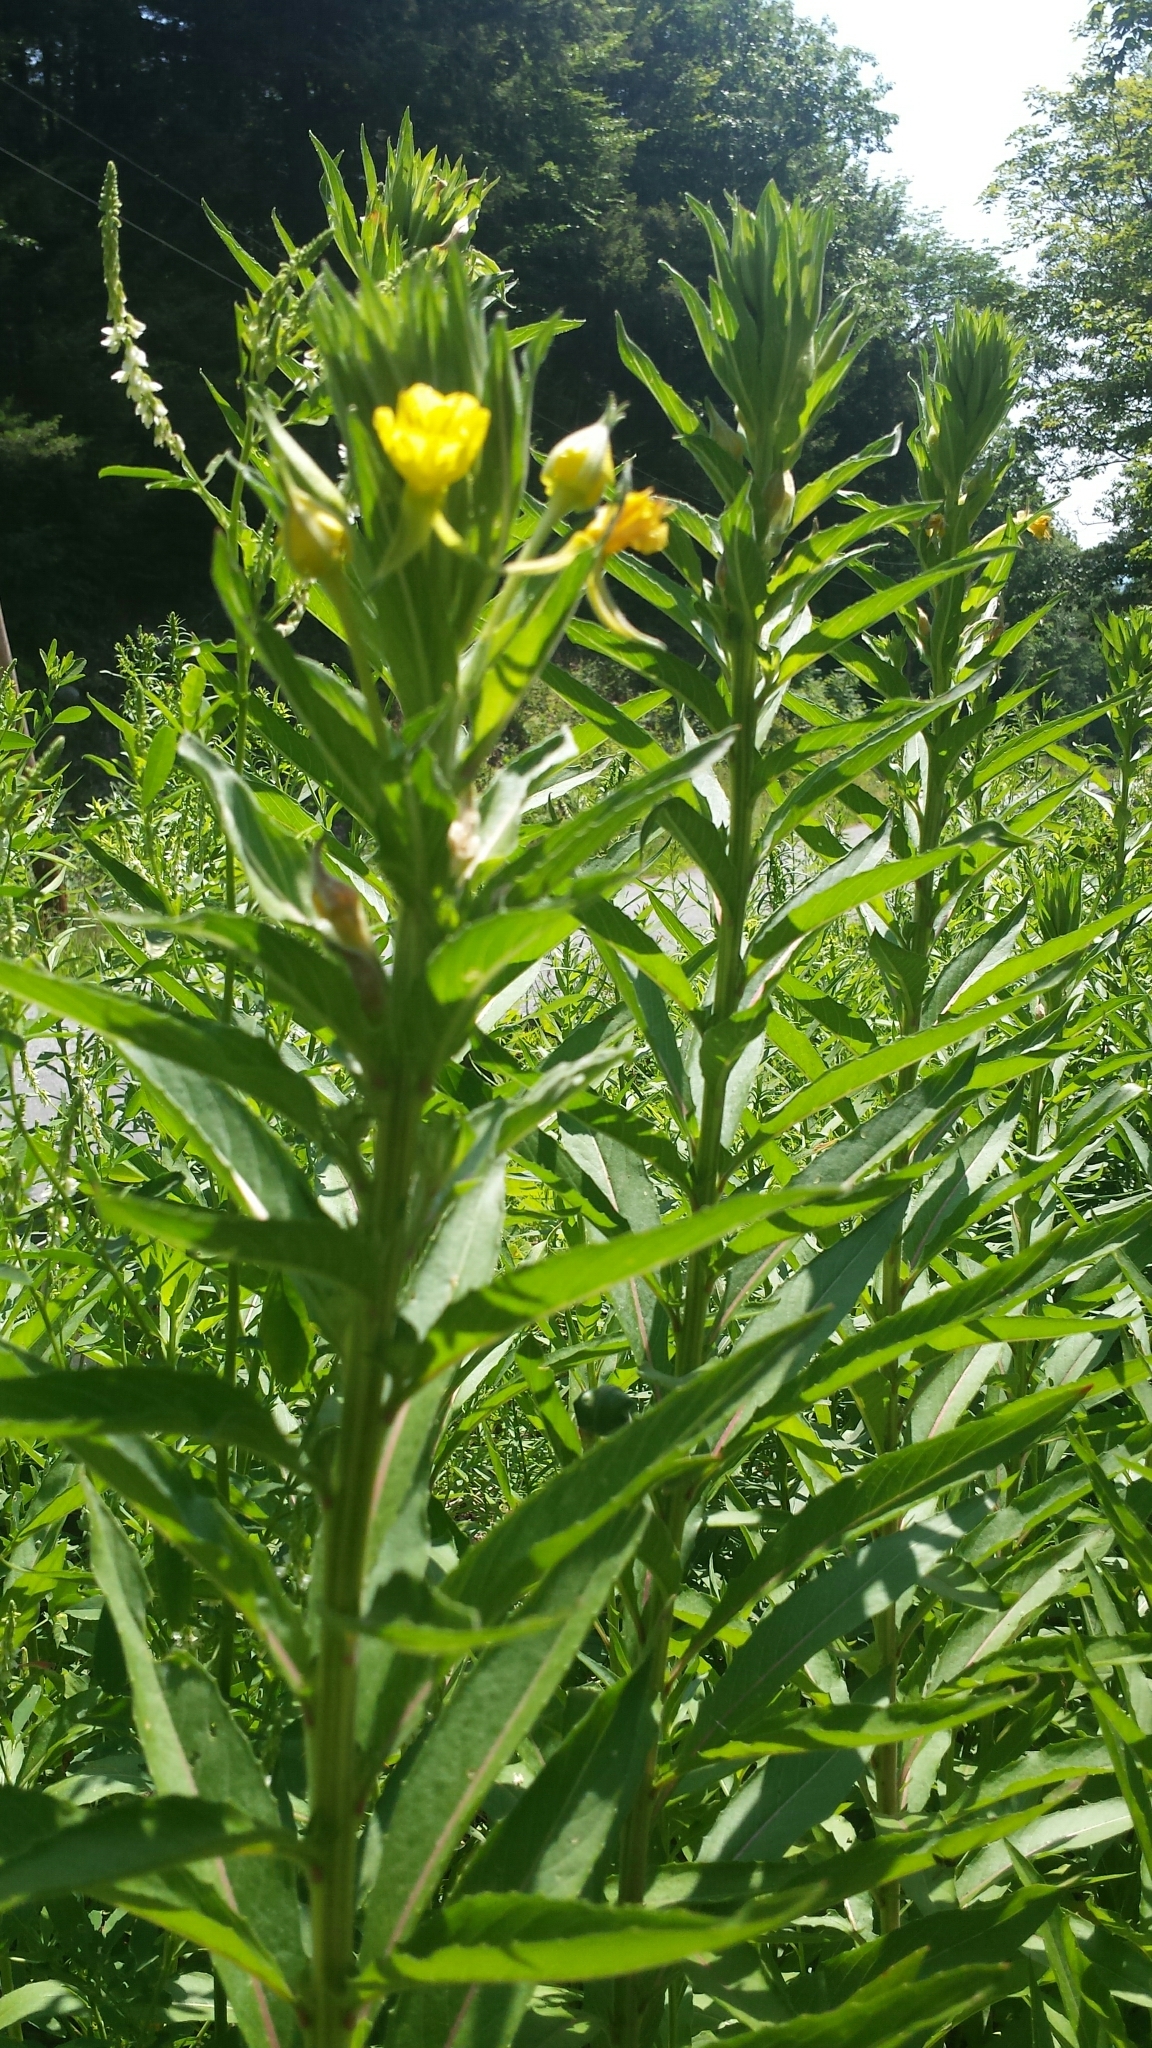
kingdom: Plantae
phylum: Tracheophyta
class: Magnoliopsida
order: Myrtales
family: Onagraceae
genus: Oenothera
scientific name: Oenothera biennis
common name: Common evening-primrose
